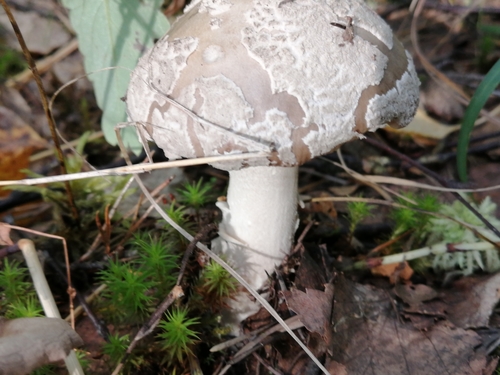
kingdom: Fungi
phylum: Basidiomycota
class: Agaricomycetes
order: Agaricales
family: Amanitaceae
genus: Amanita
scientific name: Amanita pantherina
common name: Panthercap
